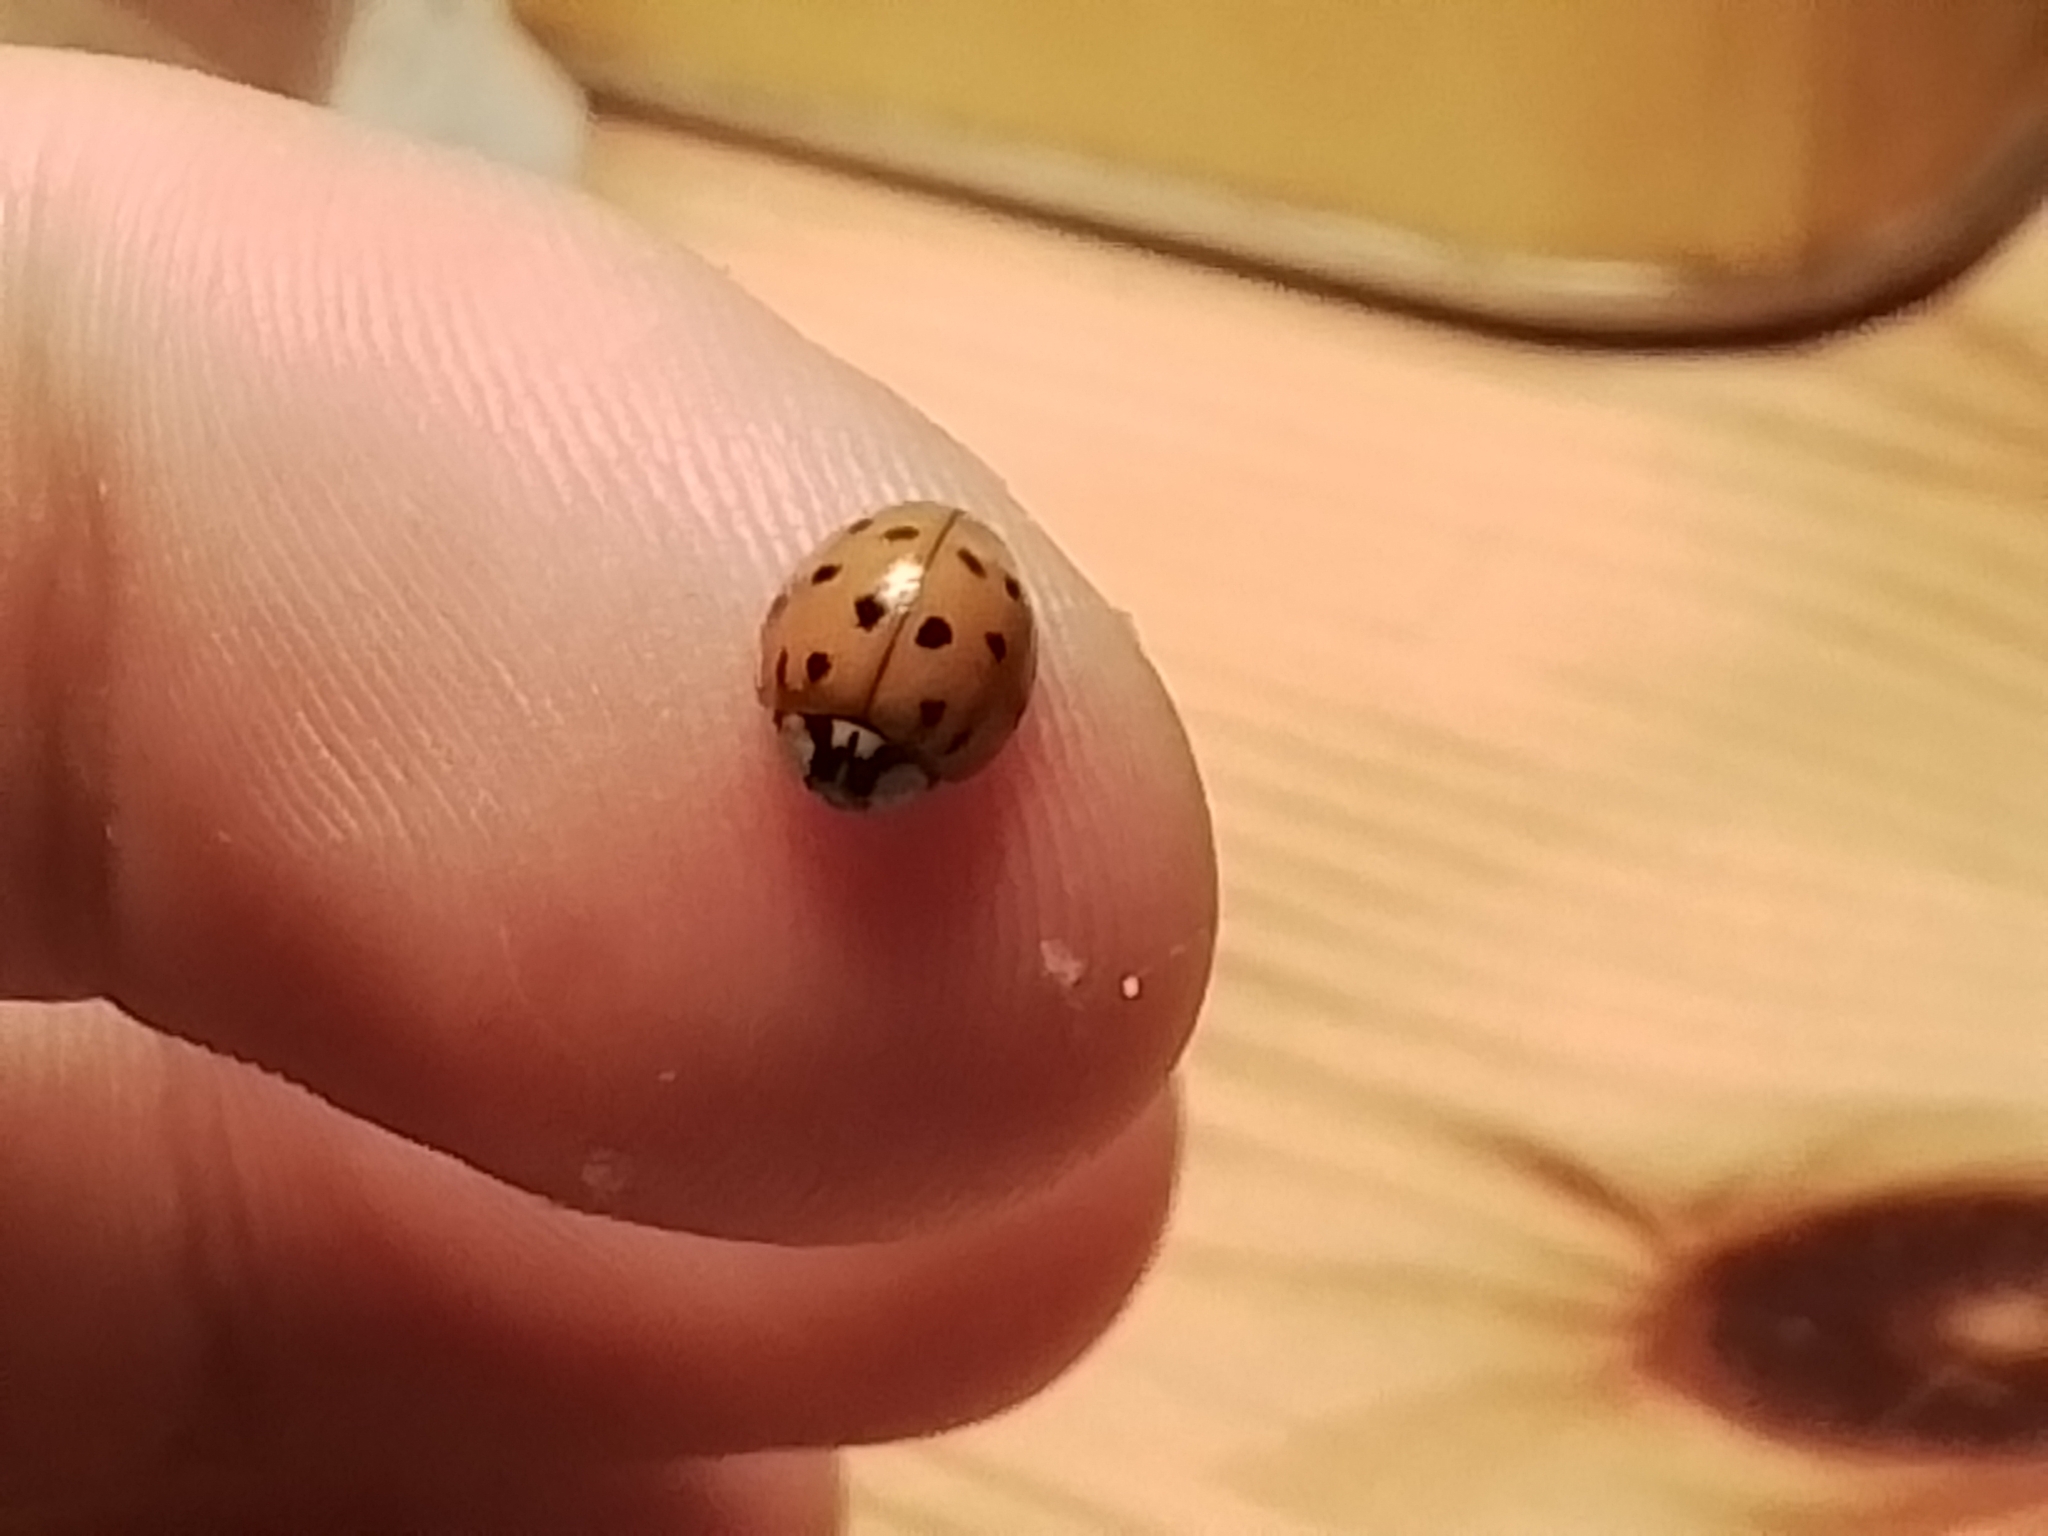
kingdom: Animalia
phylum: Arthropoda
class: Insecta
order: Coleoptera
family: Coccinellidae
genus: Harmonia
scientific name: Harmonia axyridis
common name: Harlequin ladybird
